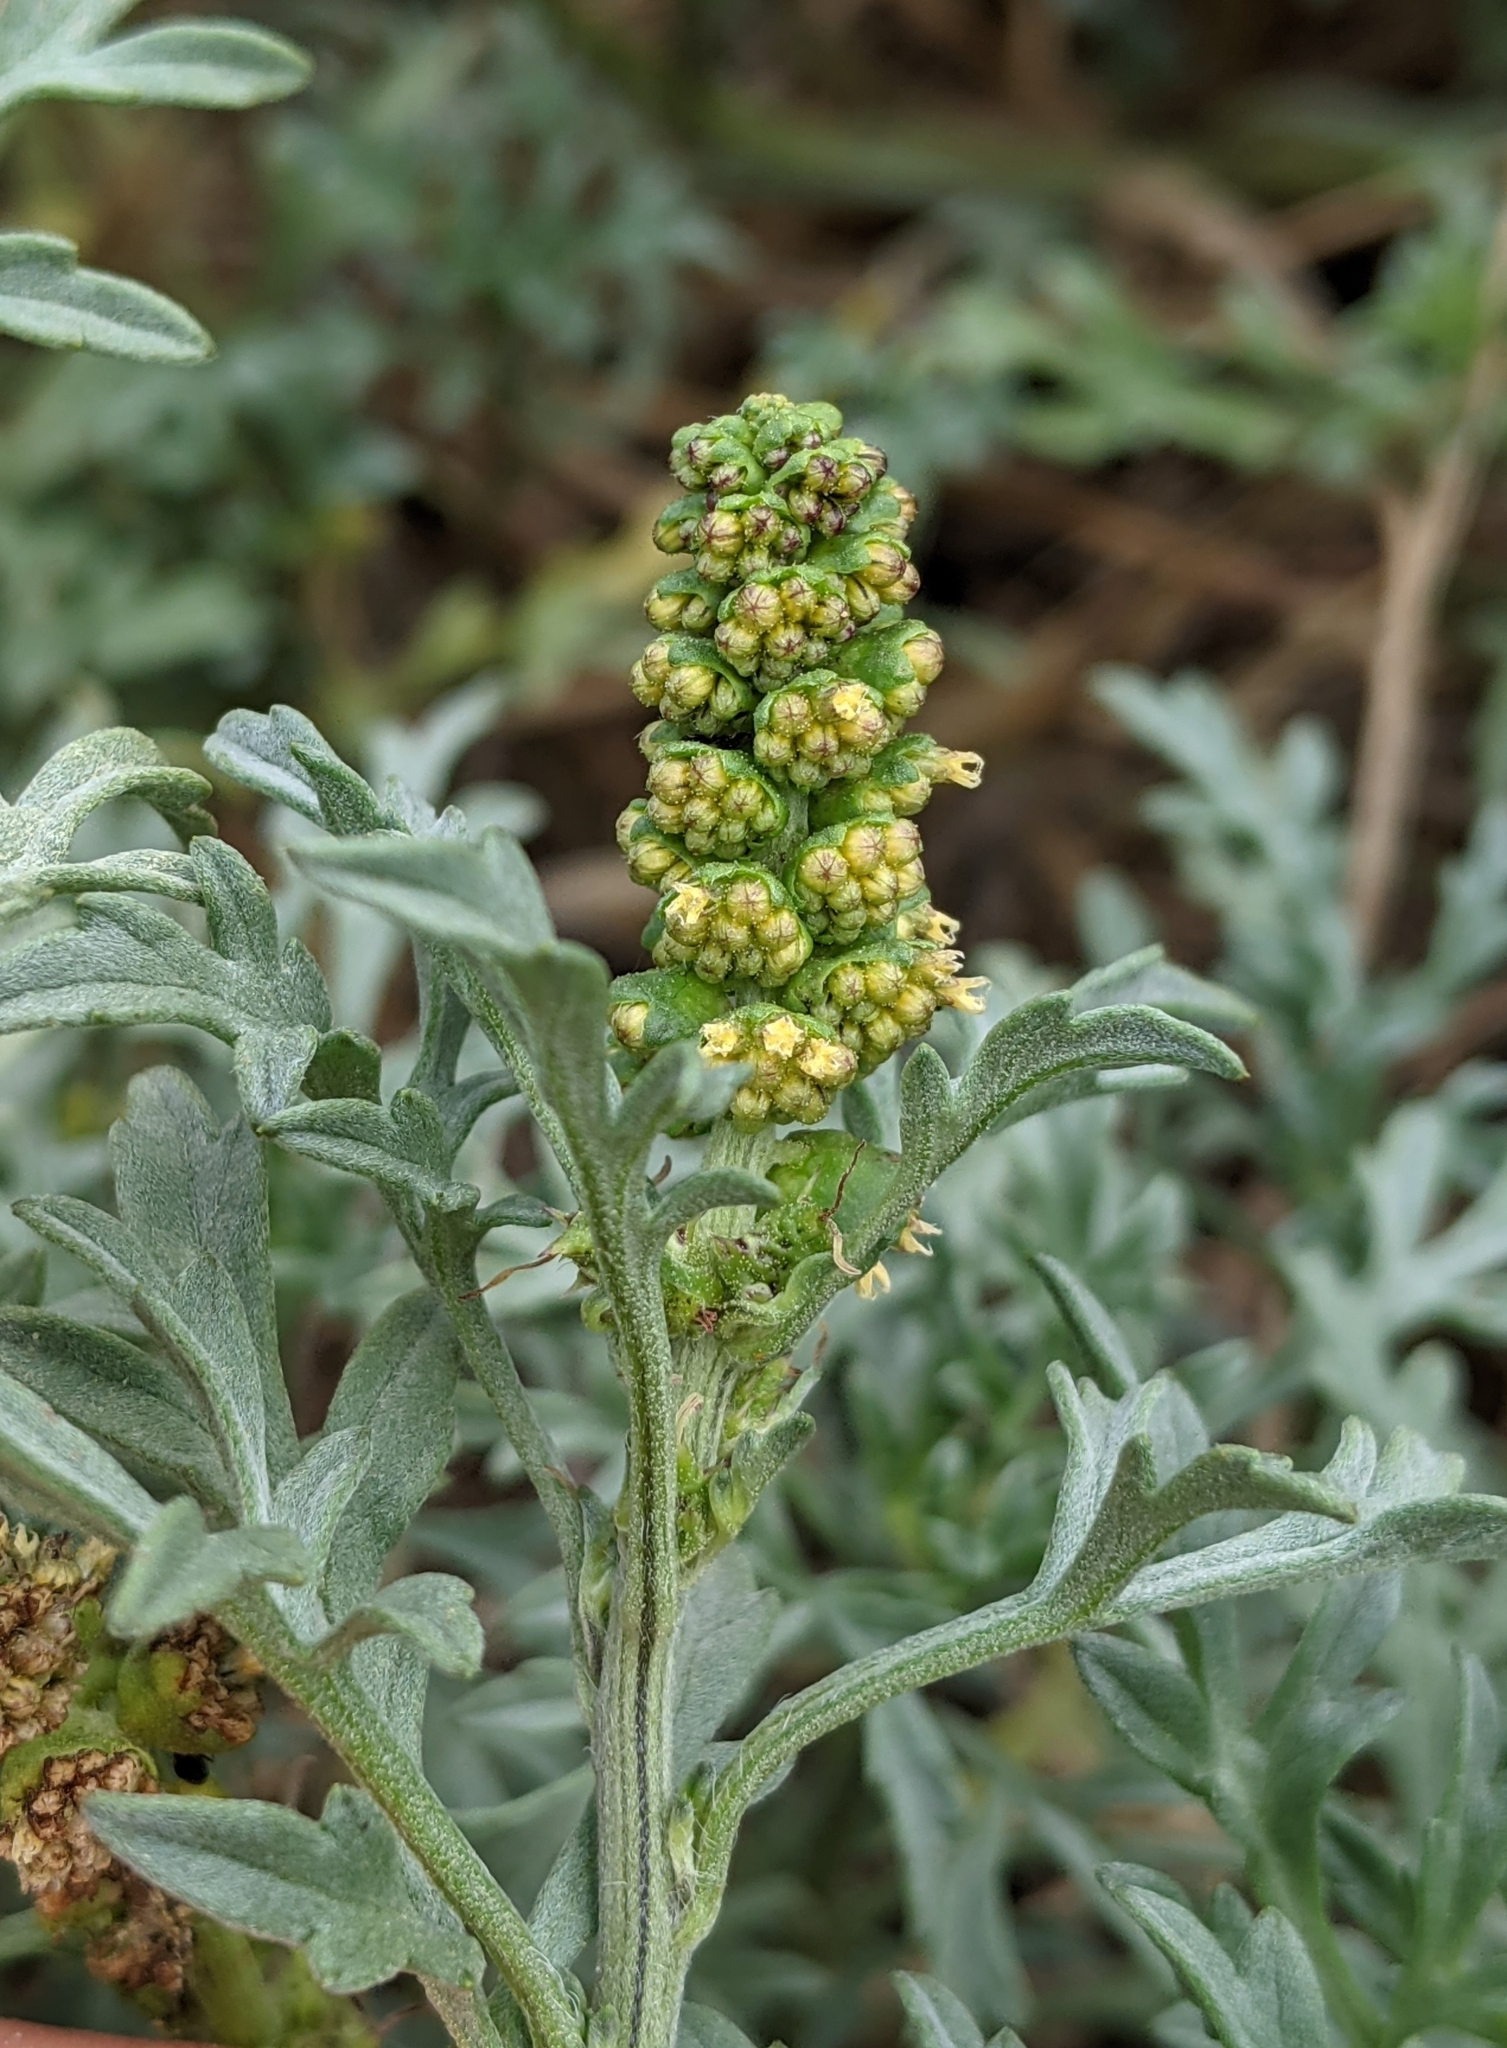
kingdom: Plantae
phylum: Tracheophyta
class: Magnoliopsida
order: Asterales
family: Asteraceae
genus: Ambrosia
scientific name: Ambrosia chamissonis
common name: Beachbur
